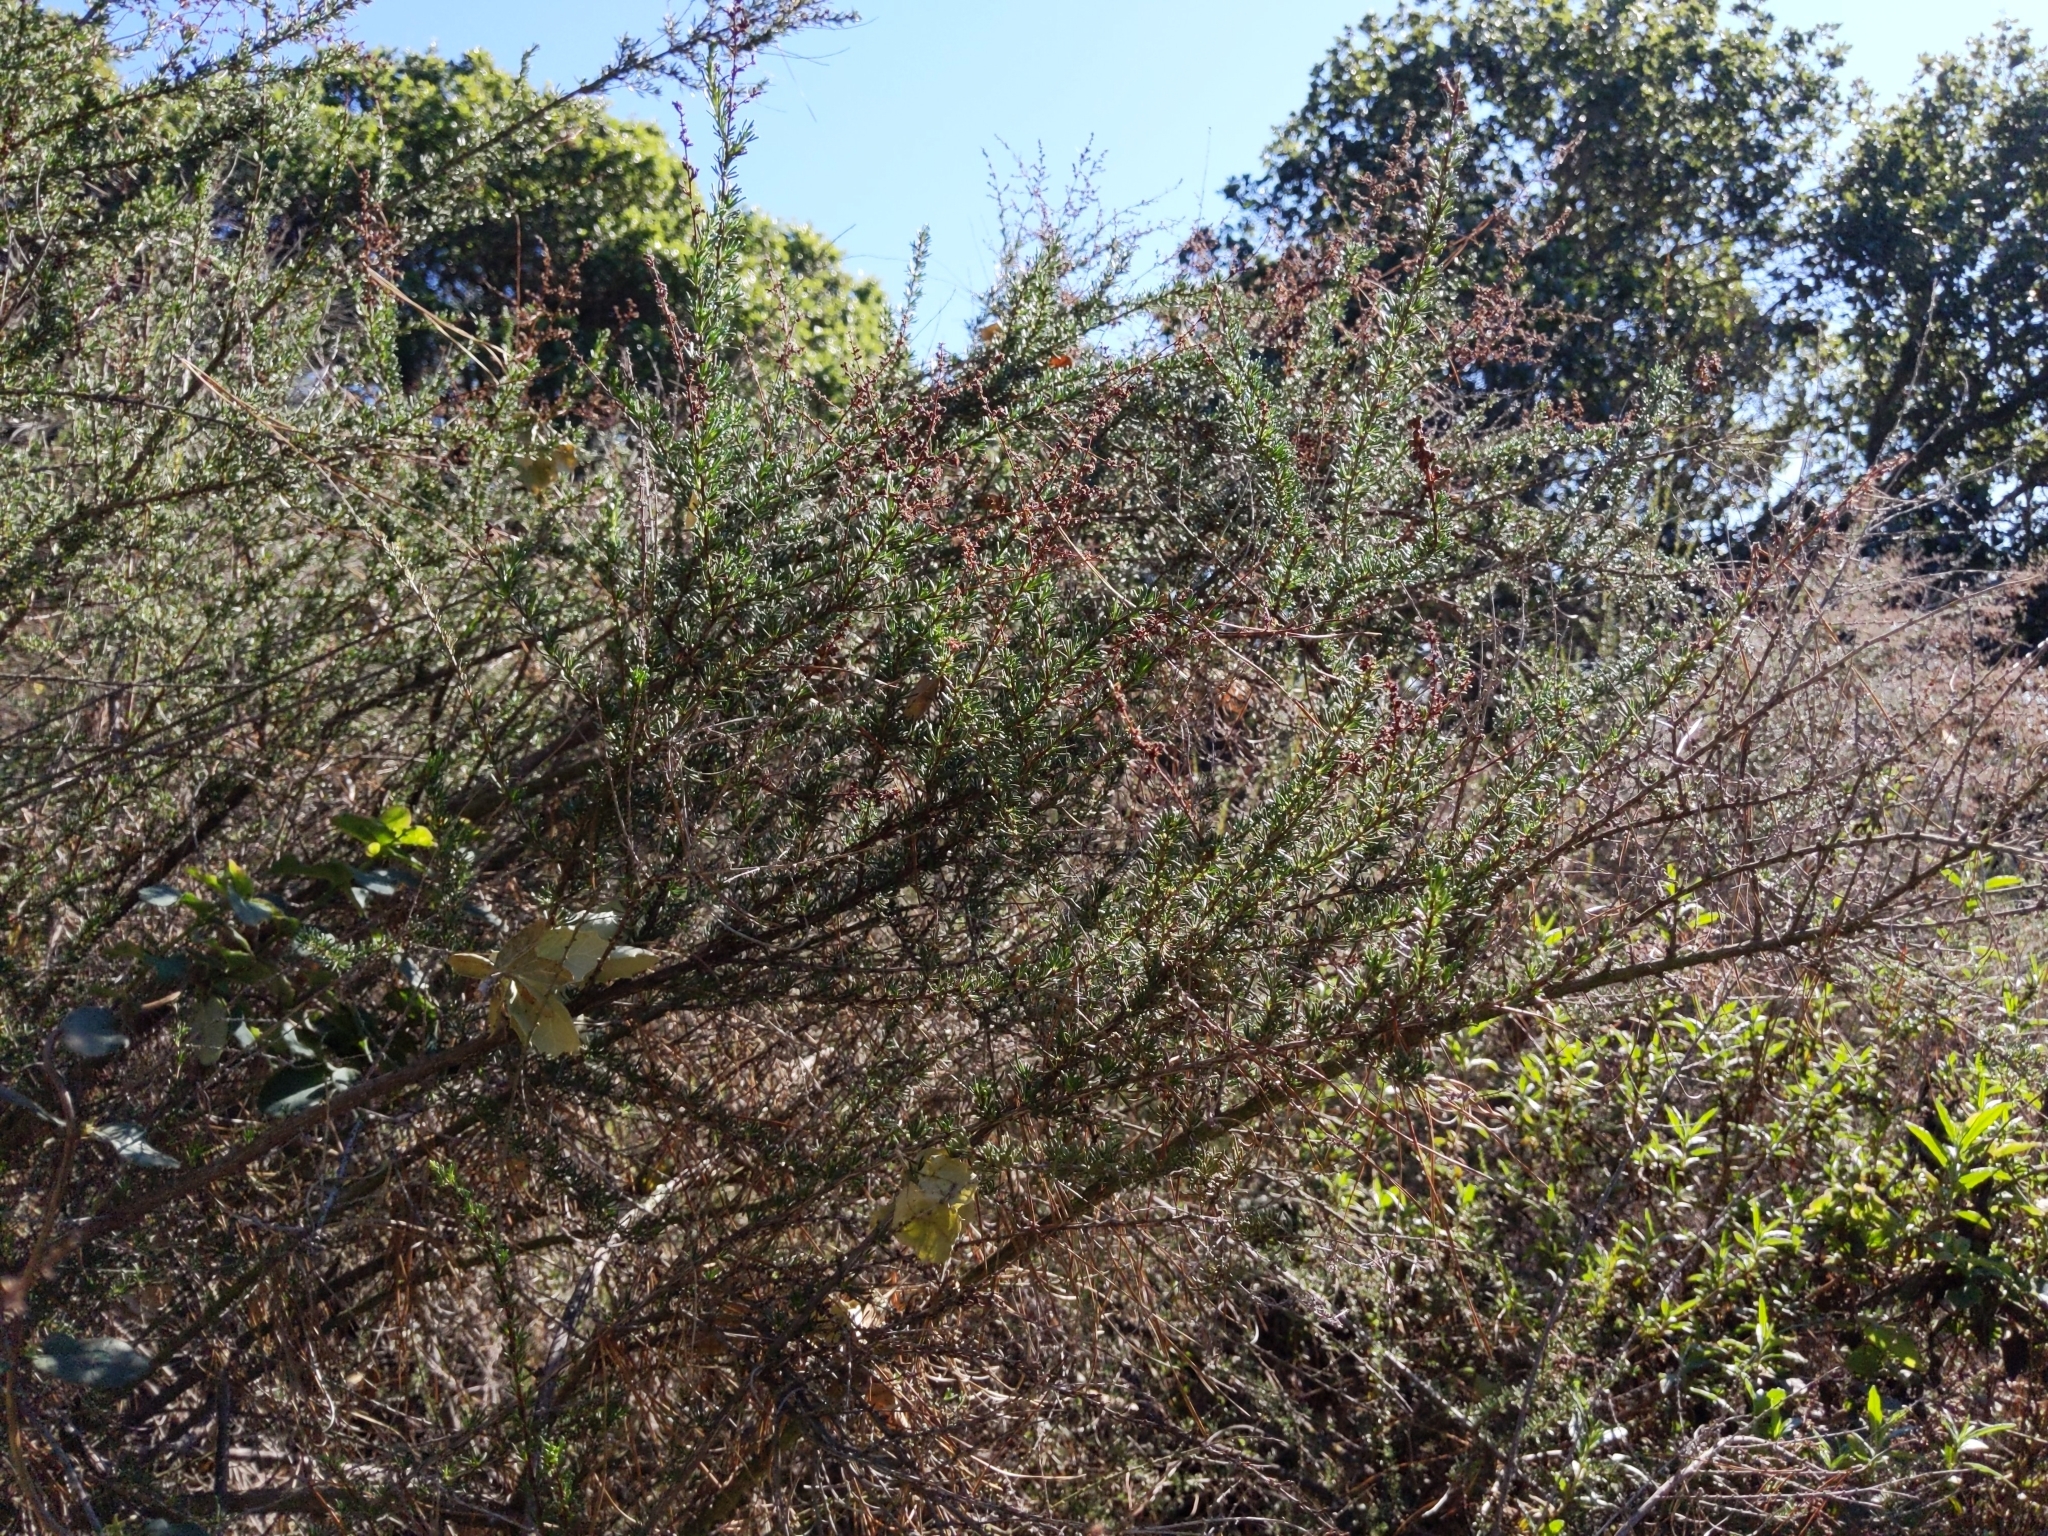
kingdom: Plantae
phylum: Tracheophyta
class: Magnoliopsida
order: Rosales
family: Rosaceae
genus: Adenostoma
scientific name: Adenostoma fasciculatum
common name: Chamise
